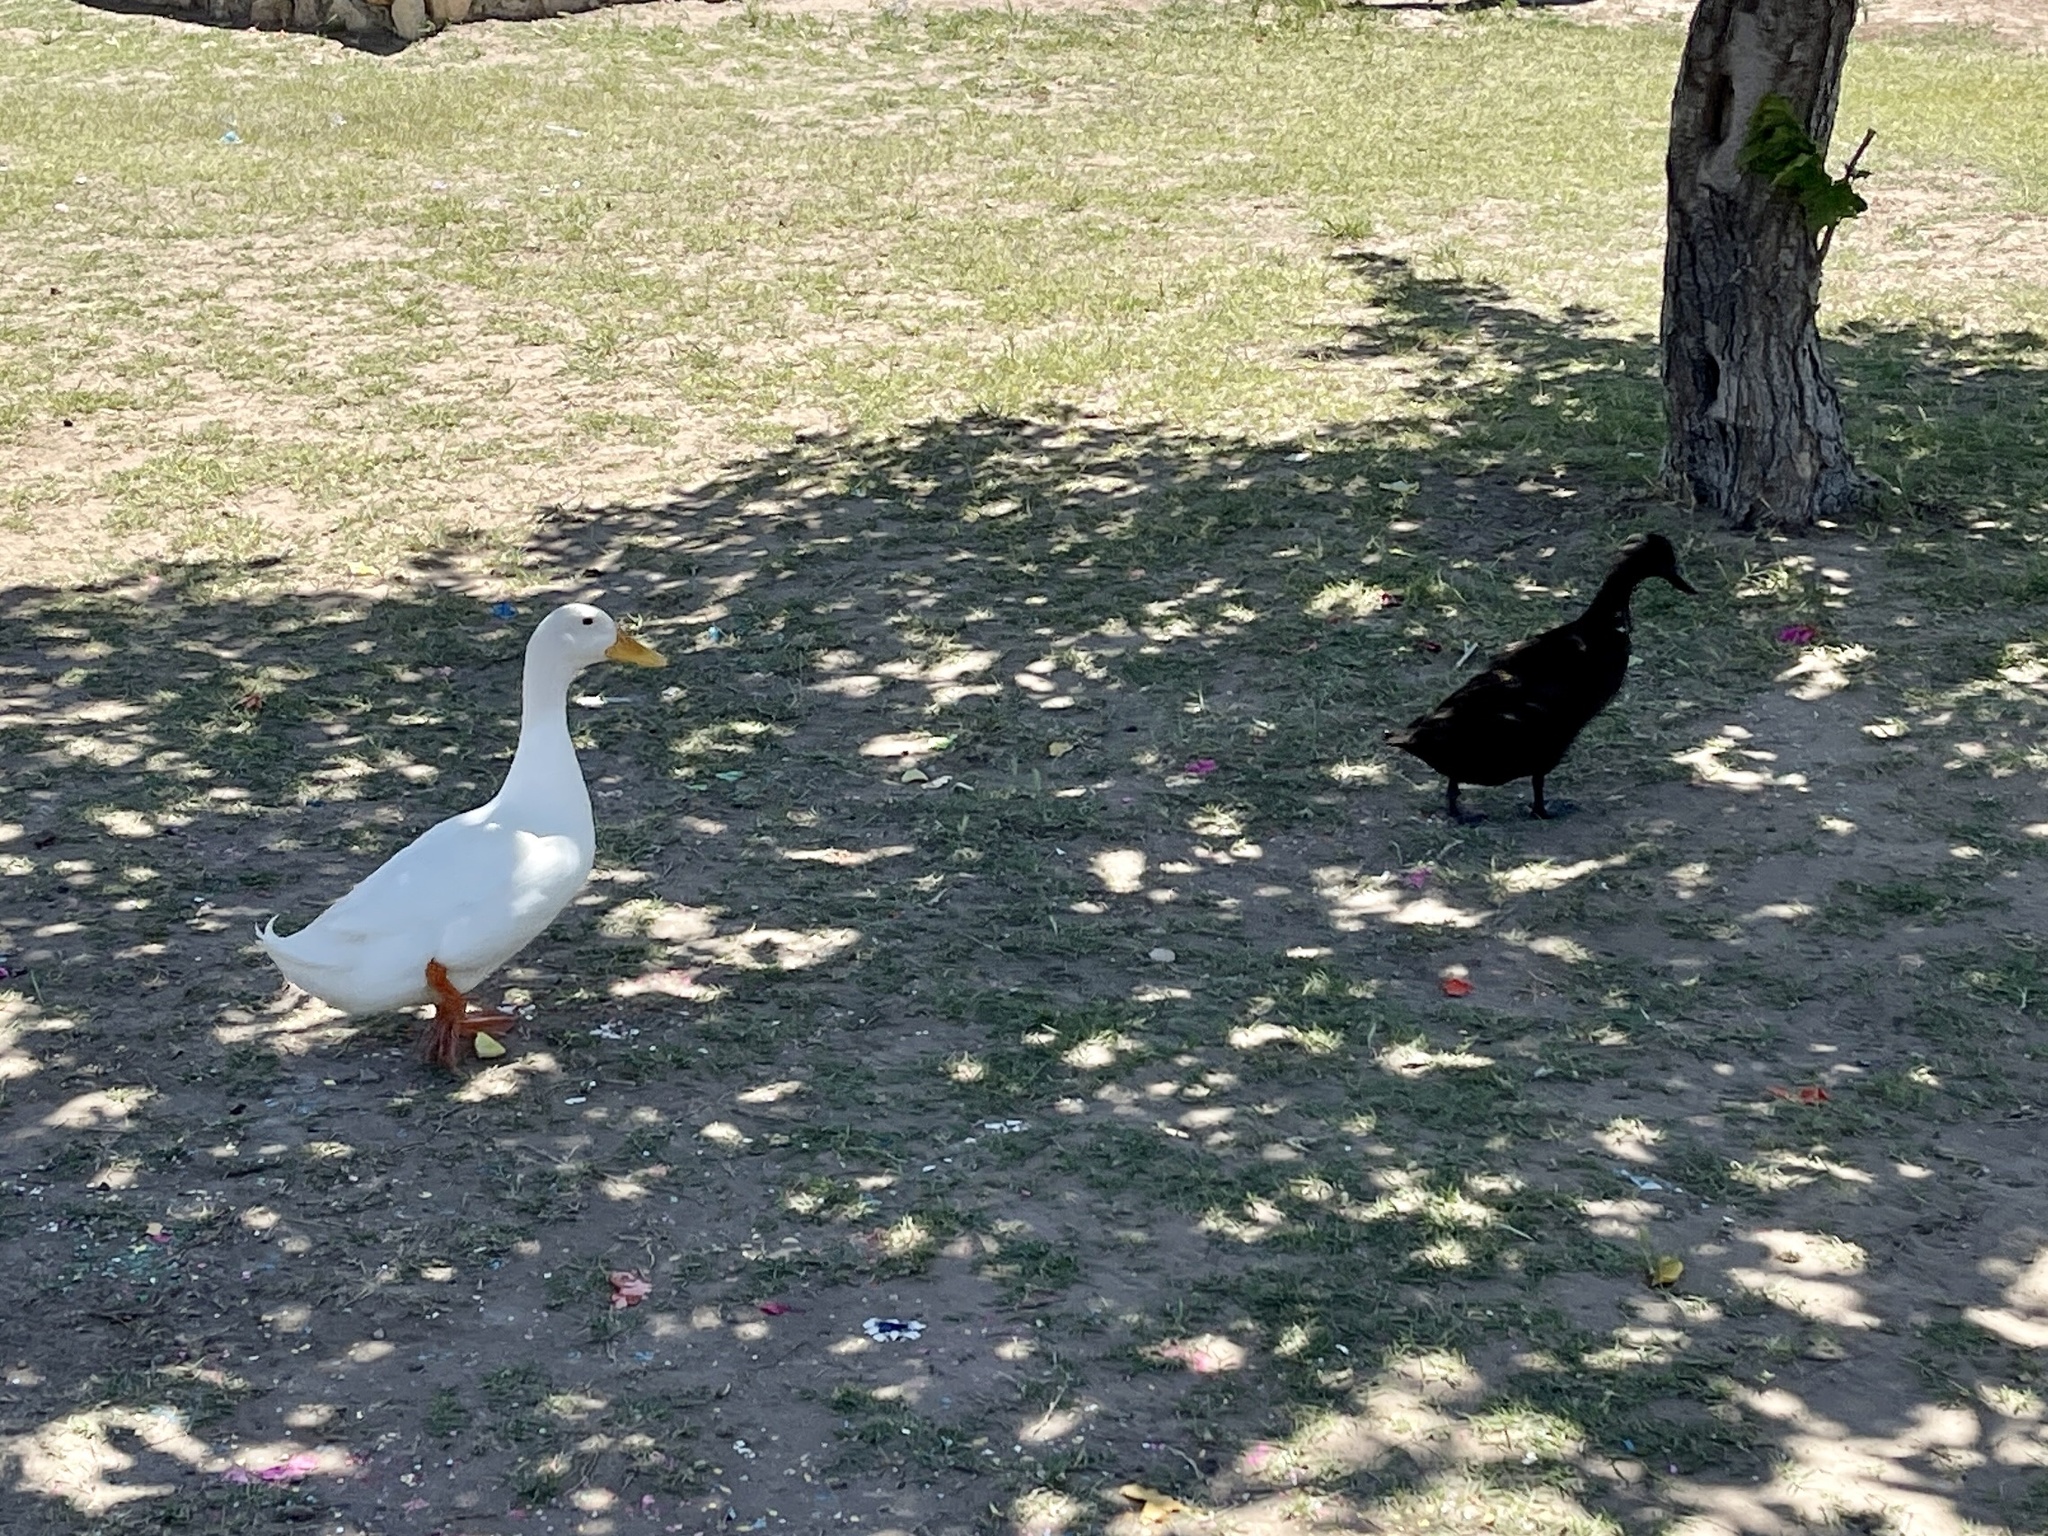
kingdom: Animalia
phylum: Chordata
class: Aves
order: Anseriformes
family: Anatidae
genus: Anas
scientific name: Anas platyrhynchos
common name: Mallard
